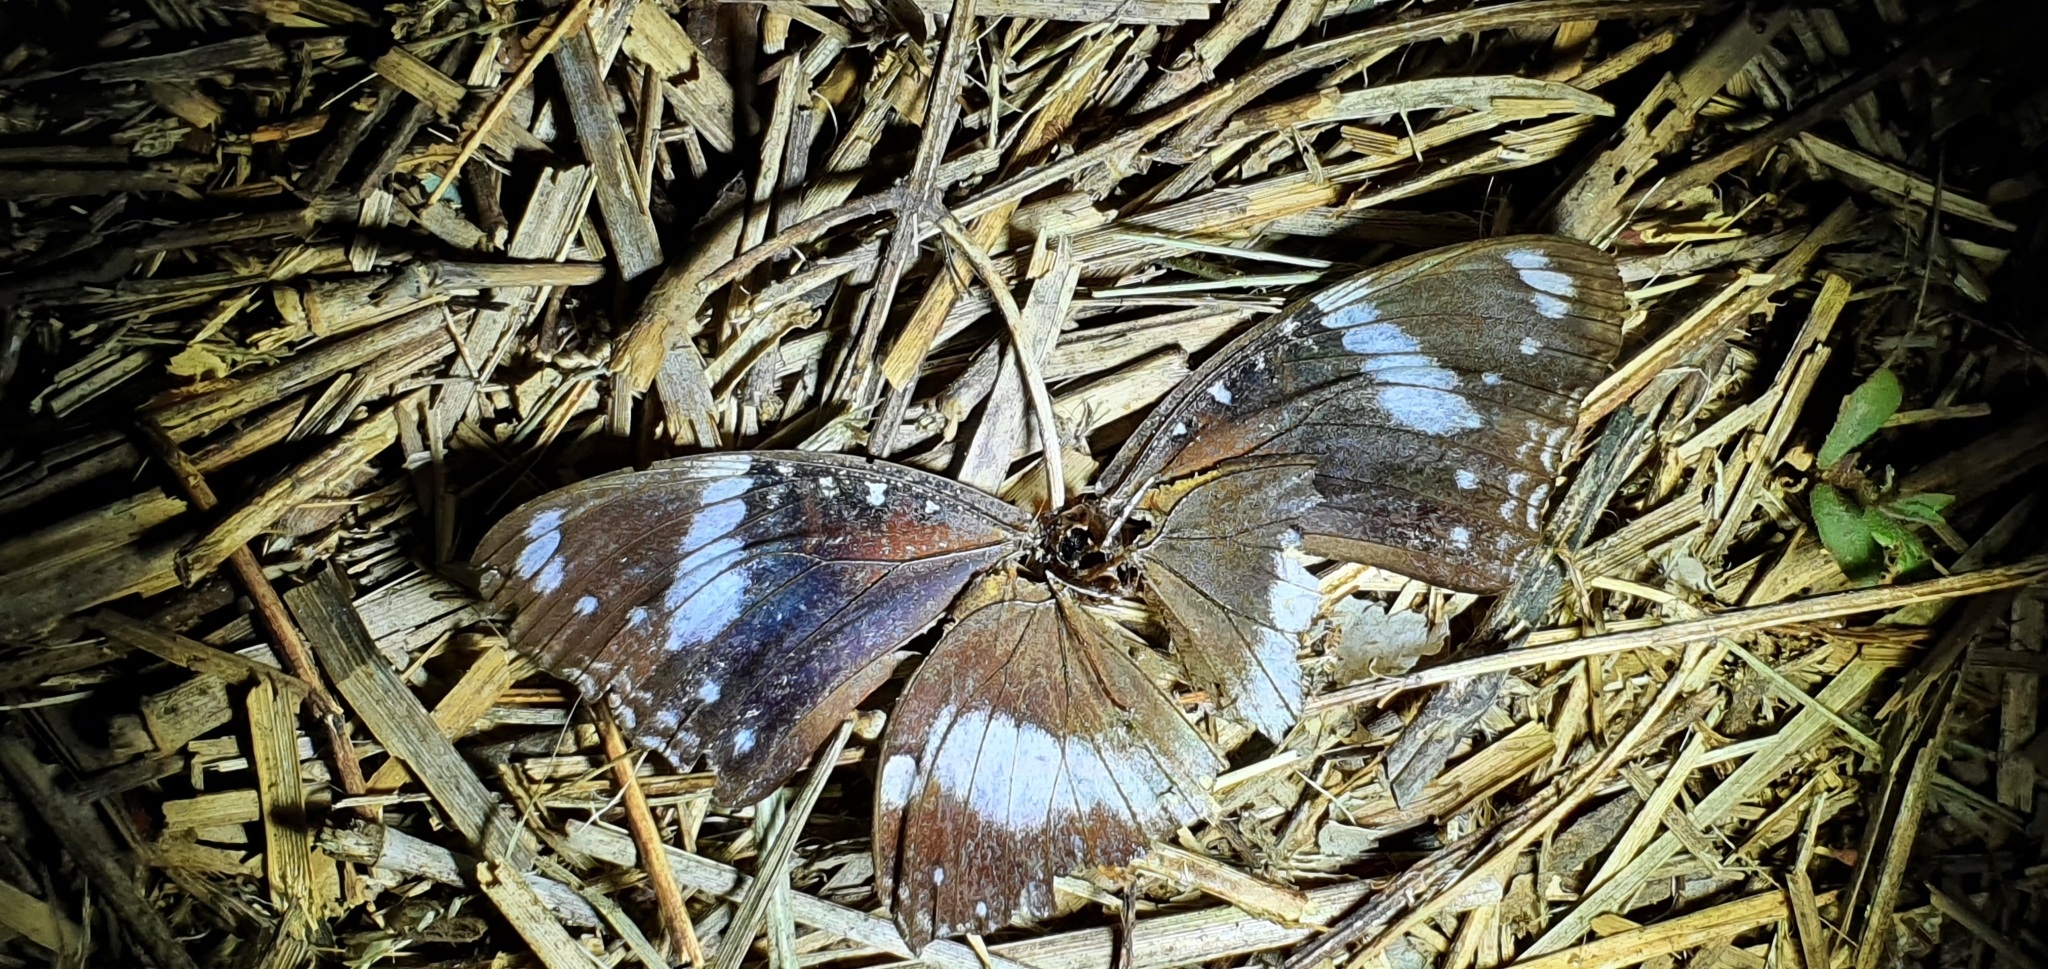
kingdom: Animalia
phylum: Arthropoda
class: Insecta
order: Lepidoptera
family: Nymphalidae
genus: Hypolimnas
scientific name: Hypolimnas bolina
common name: Great eggfly
